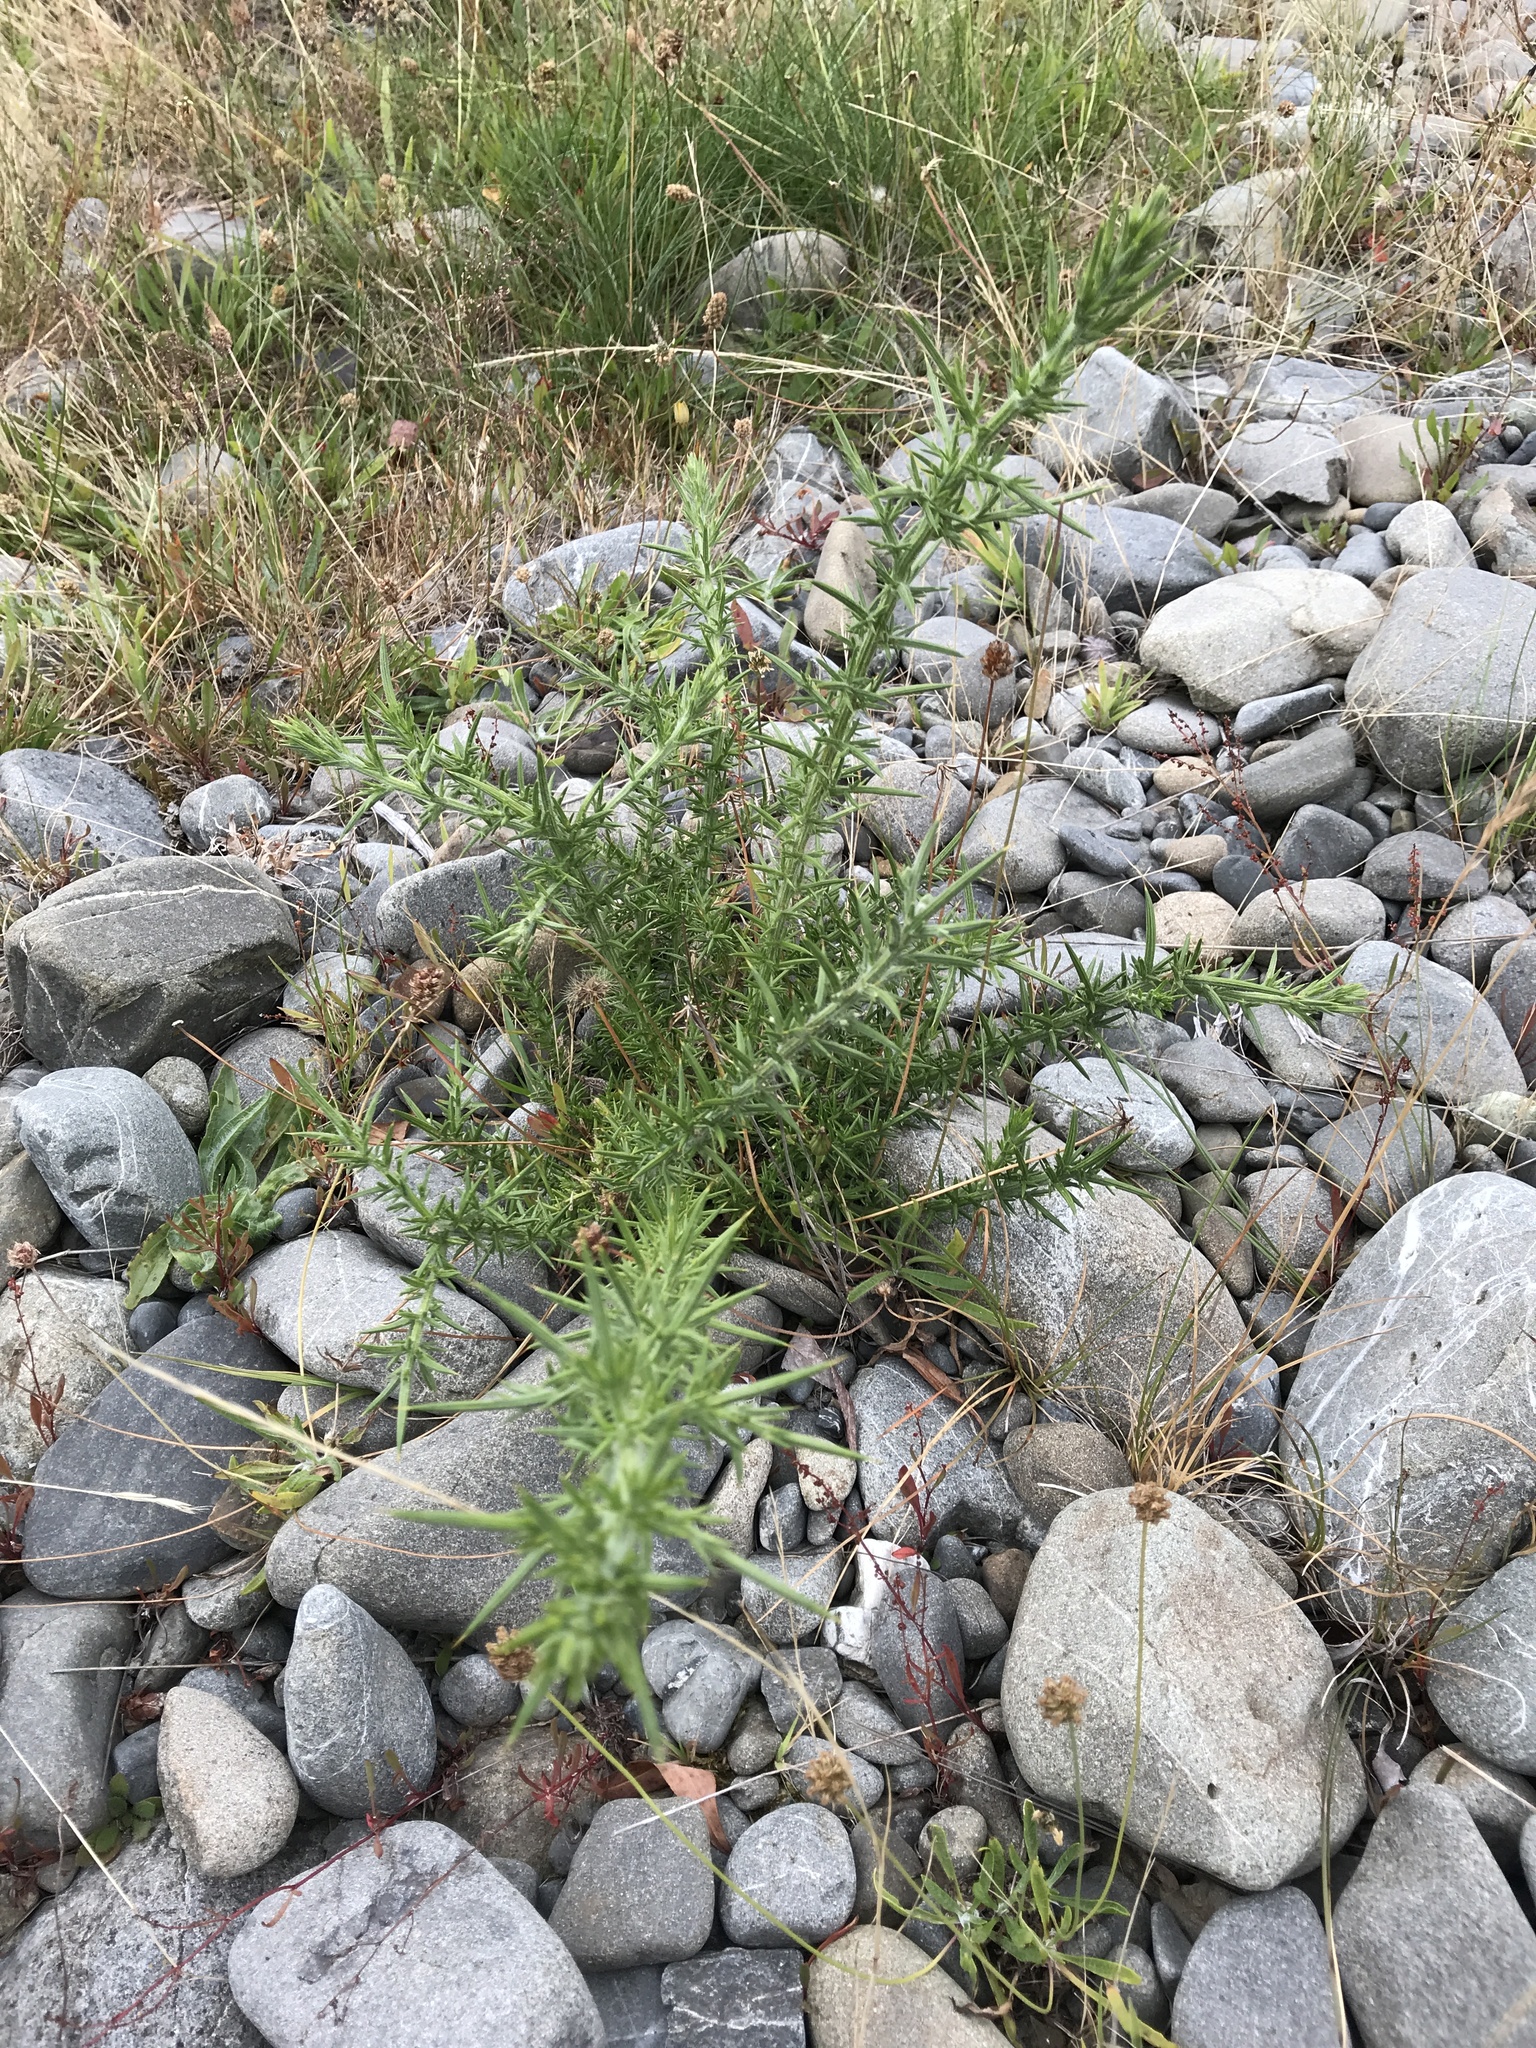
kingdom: Plantae
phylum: Tracheophyta
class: Magnoliopsida
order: Fabales
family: Fabaceae
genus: Ulex
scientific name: Ulex europaeus
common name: Common gorse
